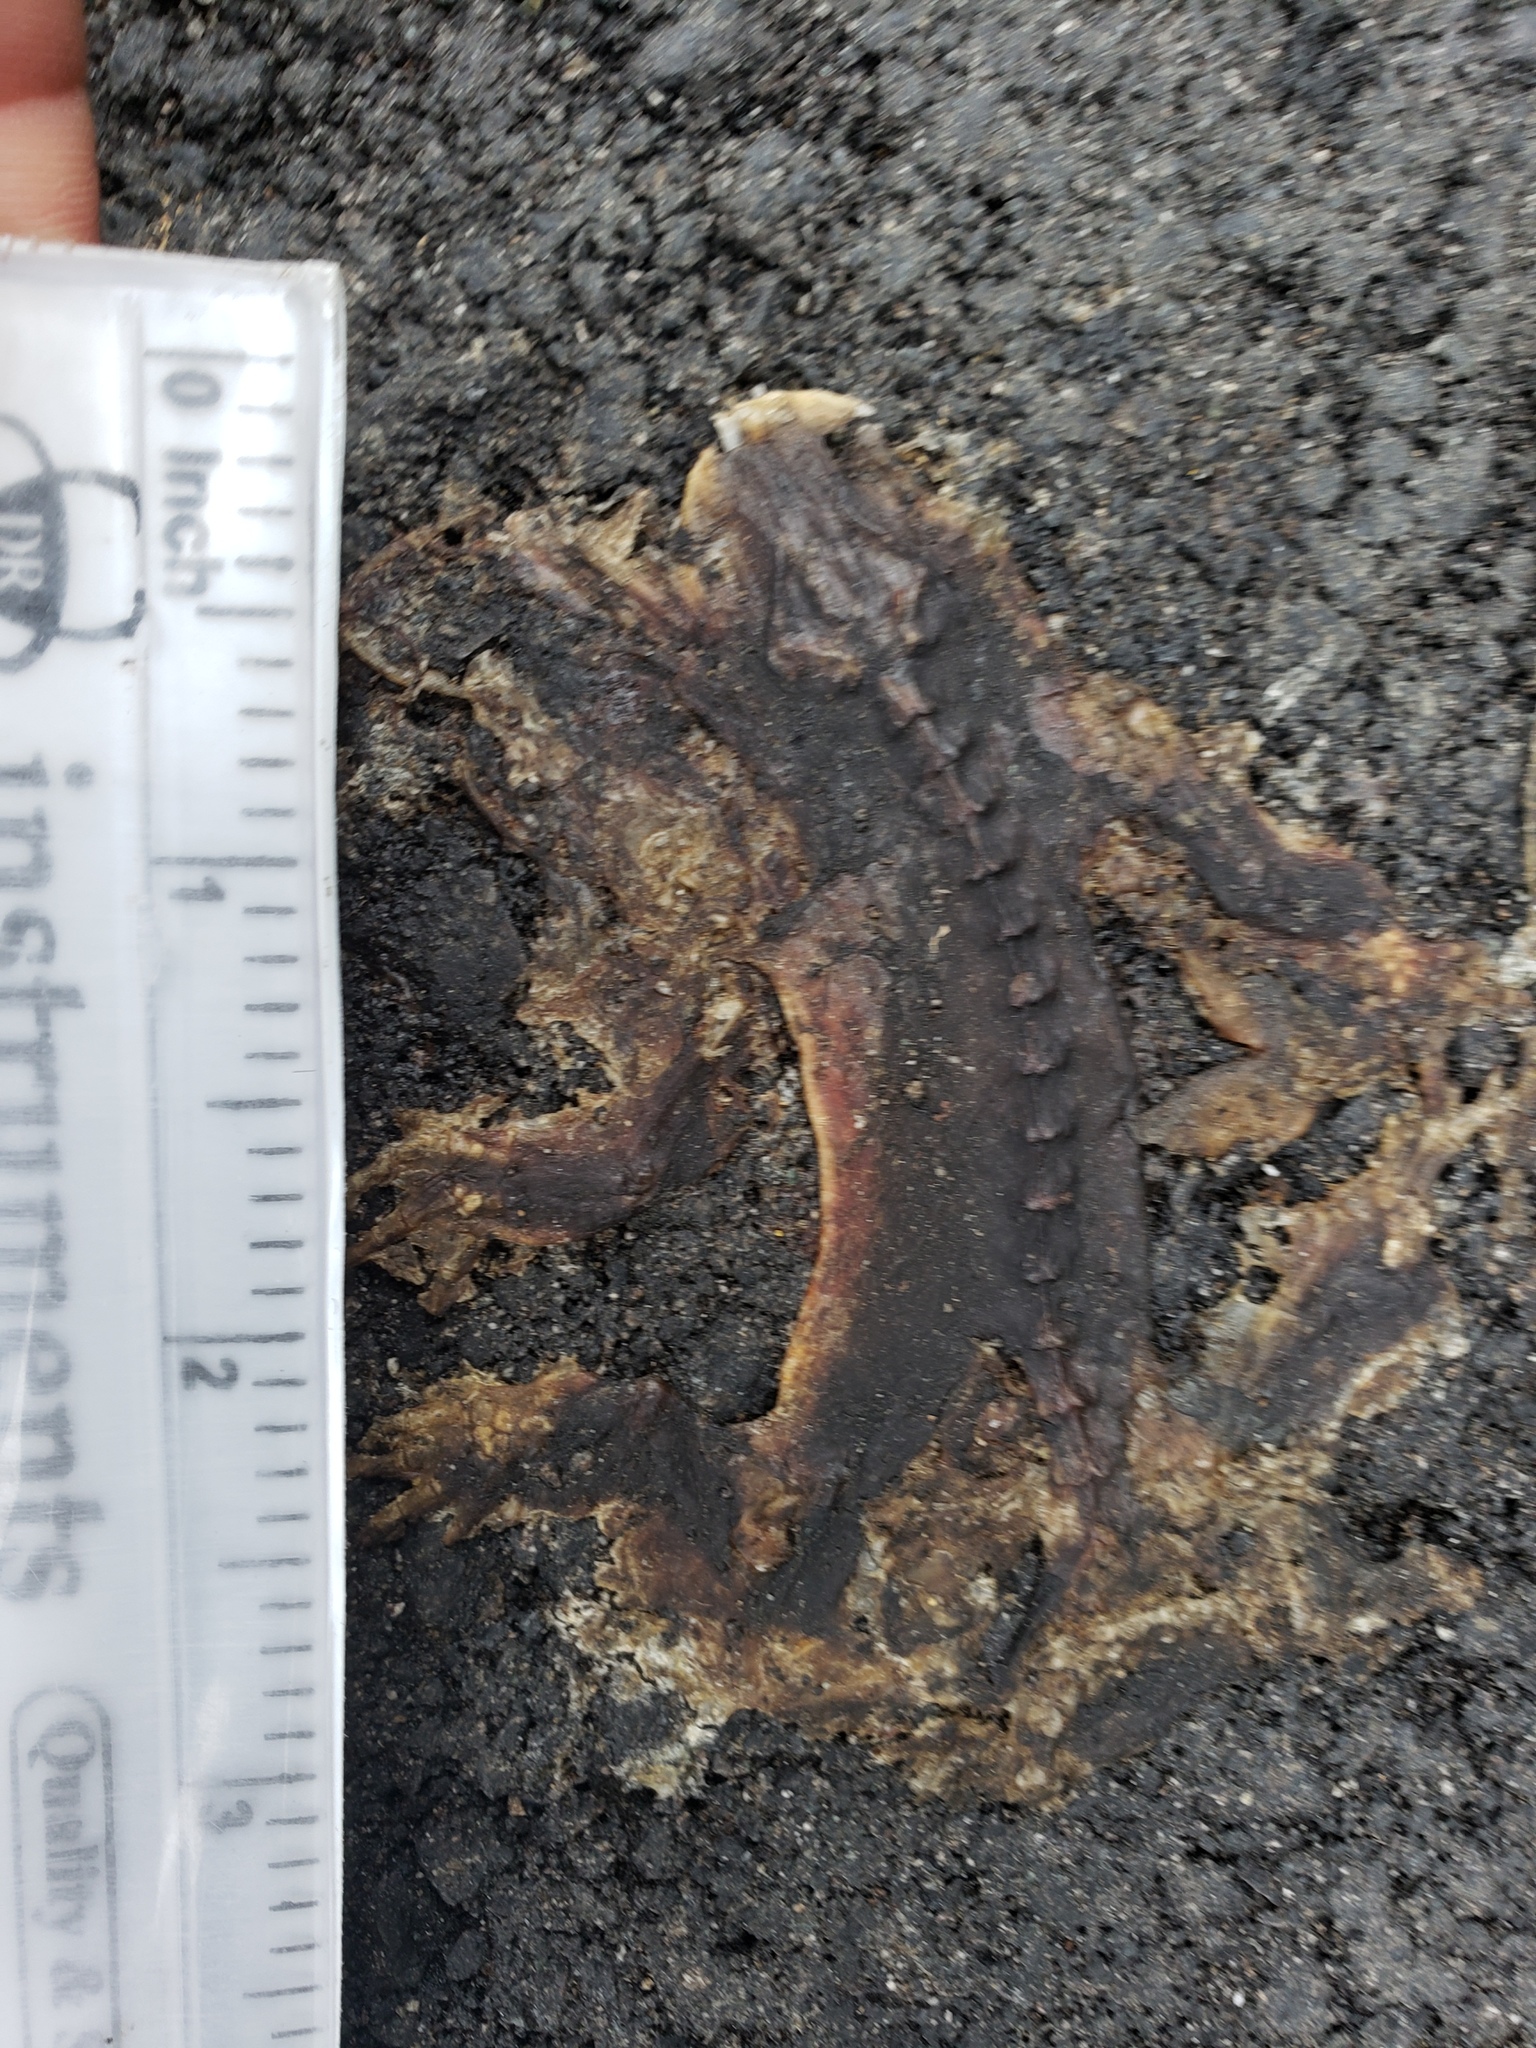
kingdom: Animalia
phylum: Chordata
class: Amphibia
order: Caudata
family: Salamandridae
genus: Taricha
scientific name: Taricha
